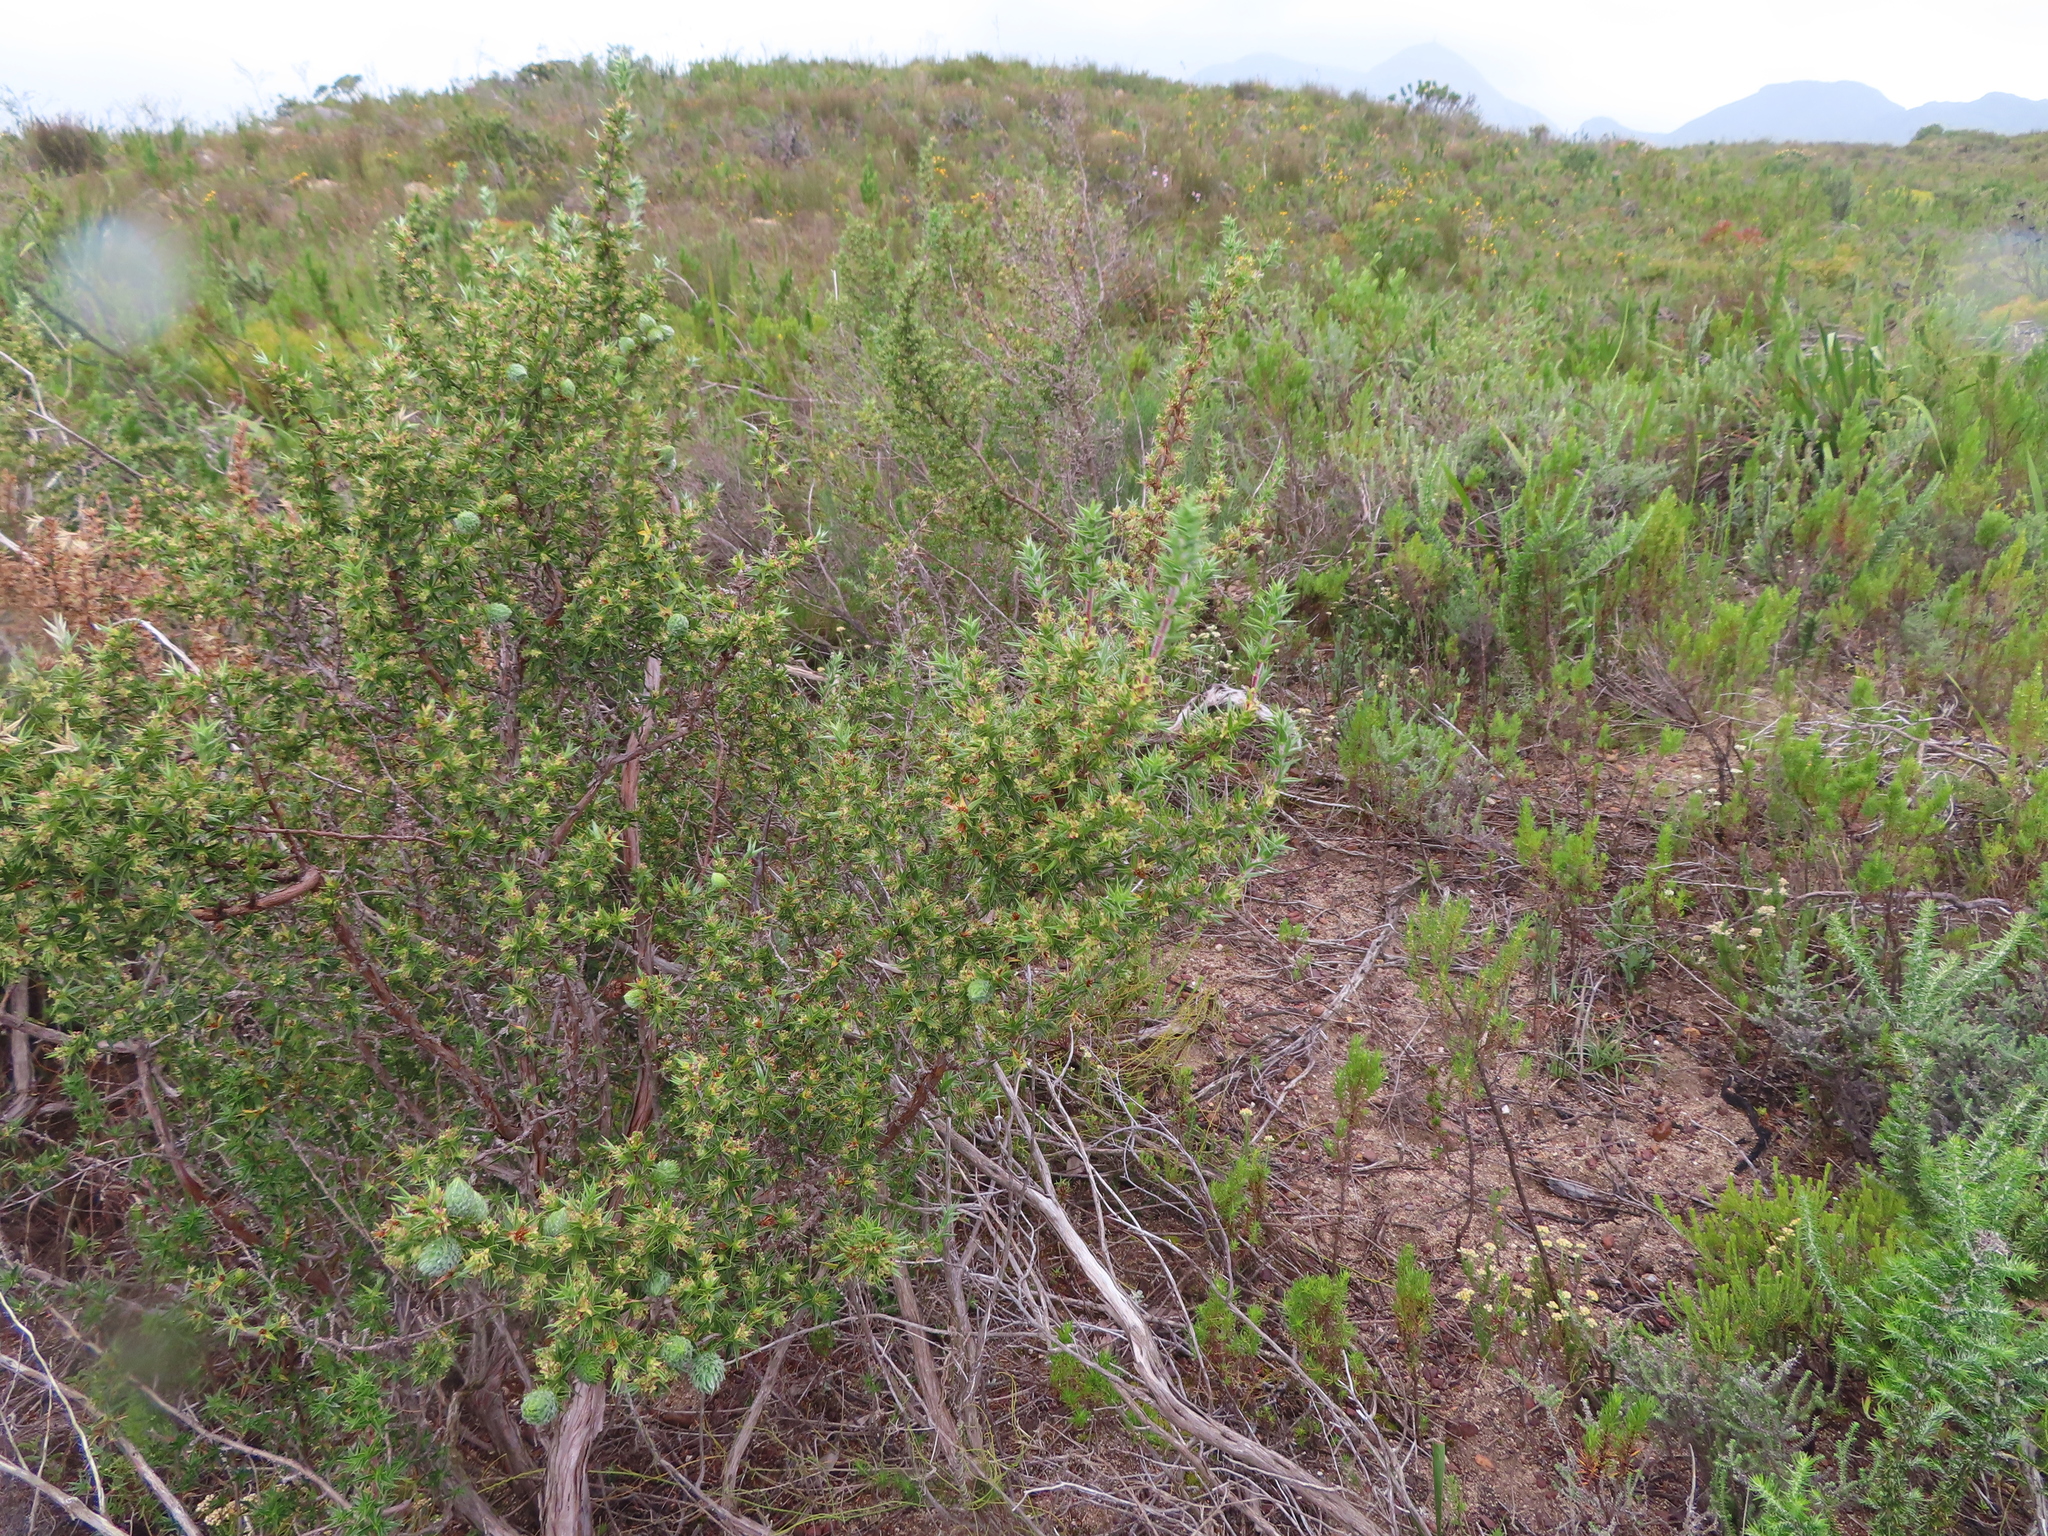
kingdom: Plantae
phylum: Tracheophyta
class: Magnoliopsida
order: Rosales
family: Rosaceae
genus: Cliffortia
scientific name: Cliffortia ruscifolia
